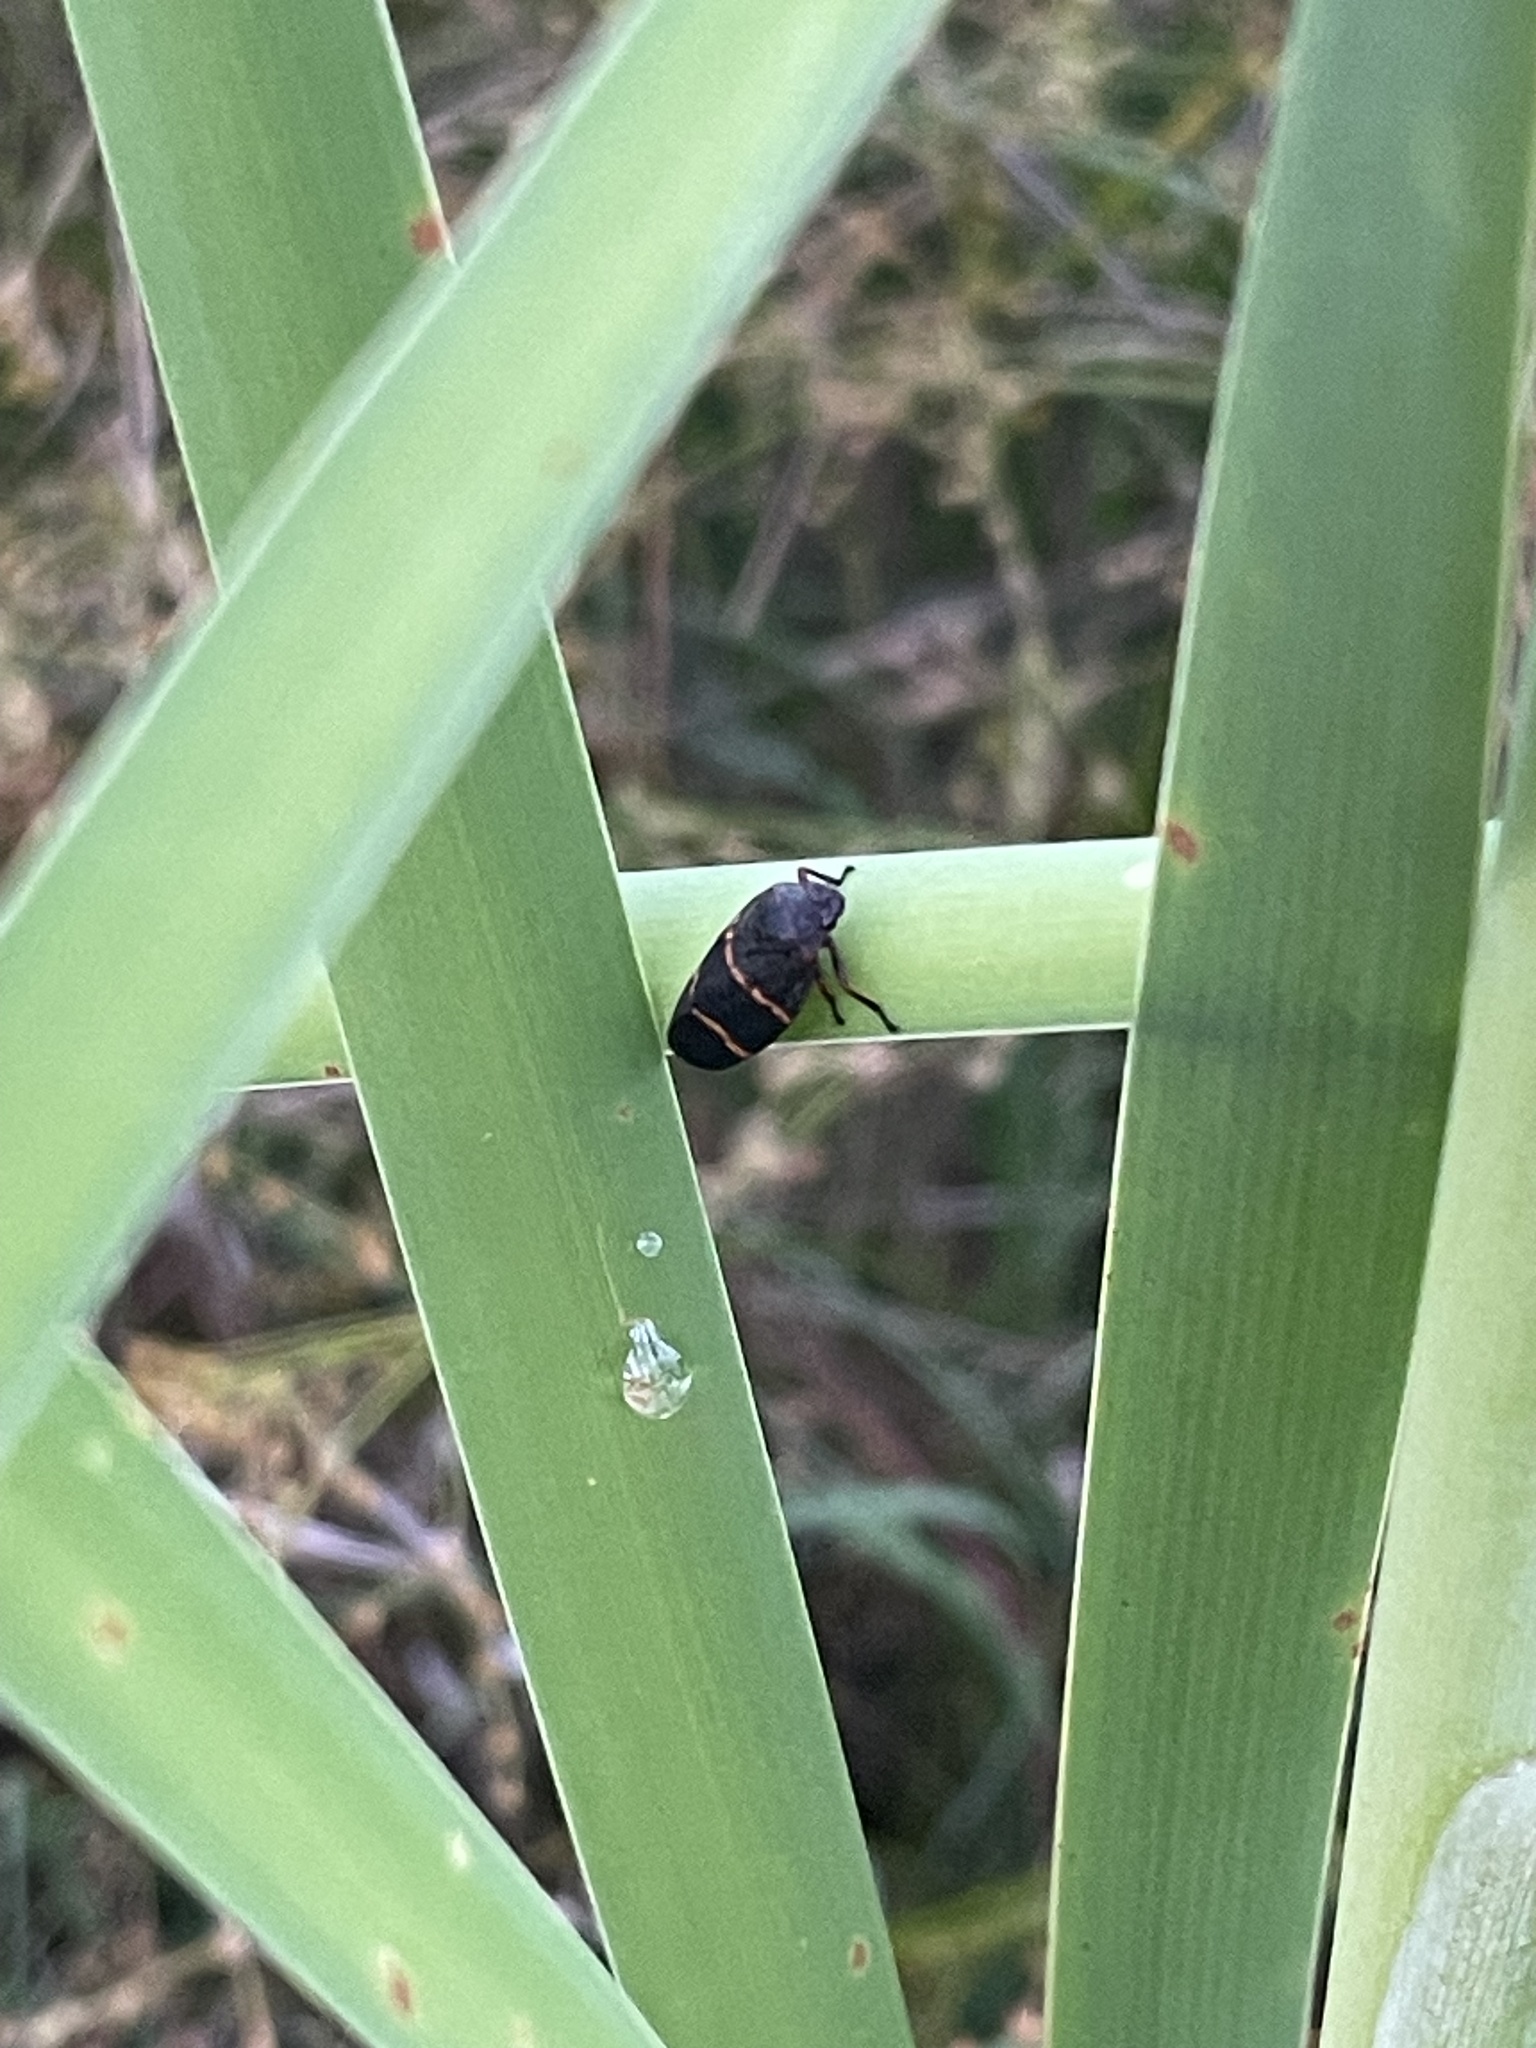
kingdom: Animalia
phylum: Arthropoda
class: Insecta
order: Hemiptera
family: Cercopidae
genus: Prosapia
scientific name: Prosapia bicincta
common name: Twolined spittlebug
